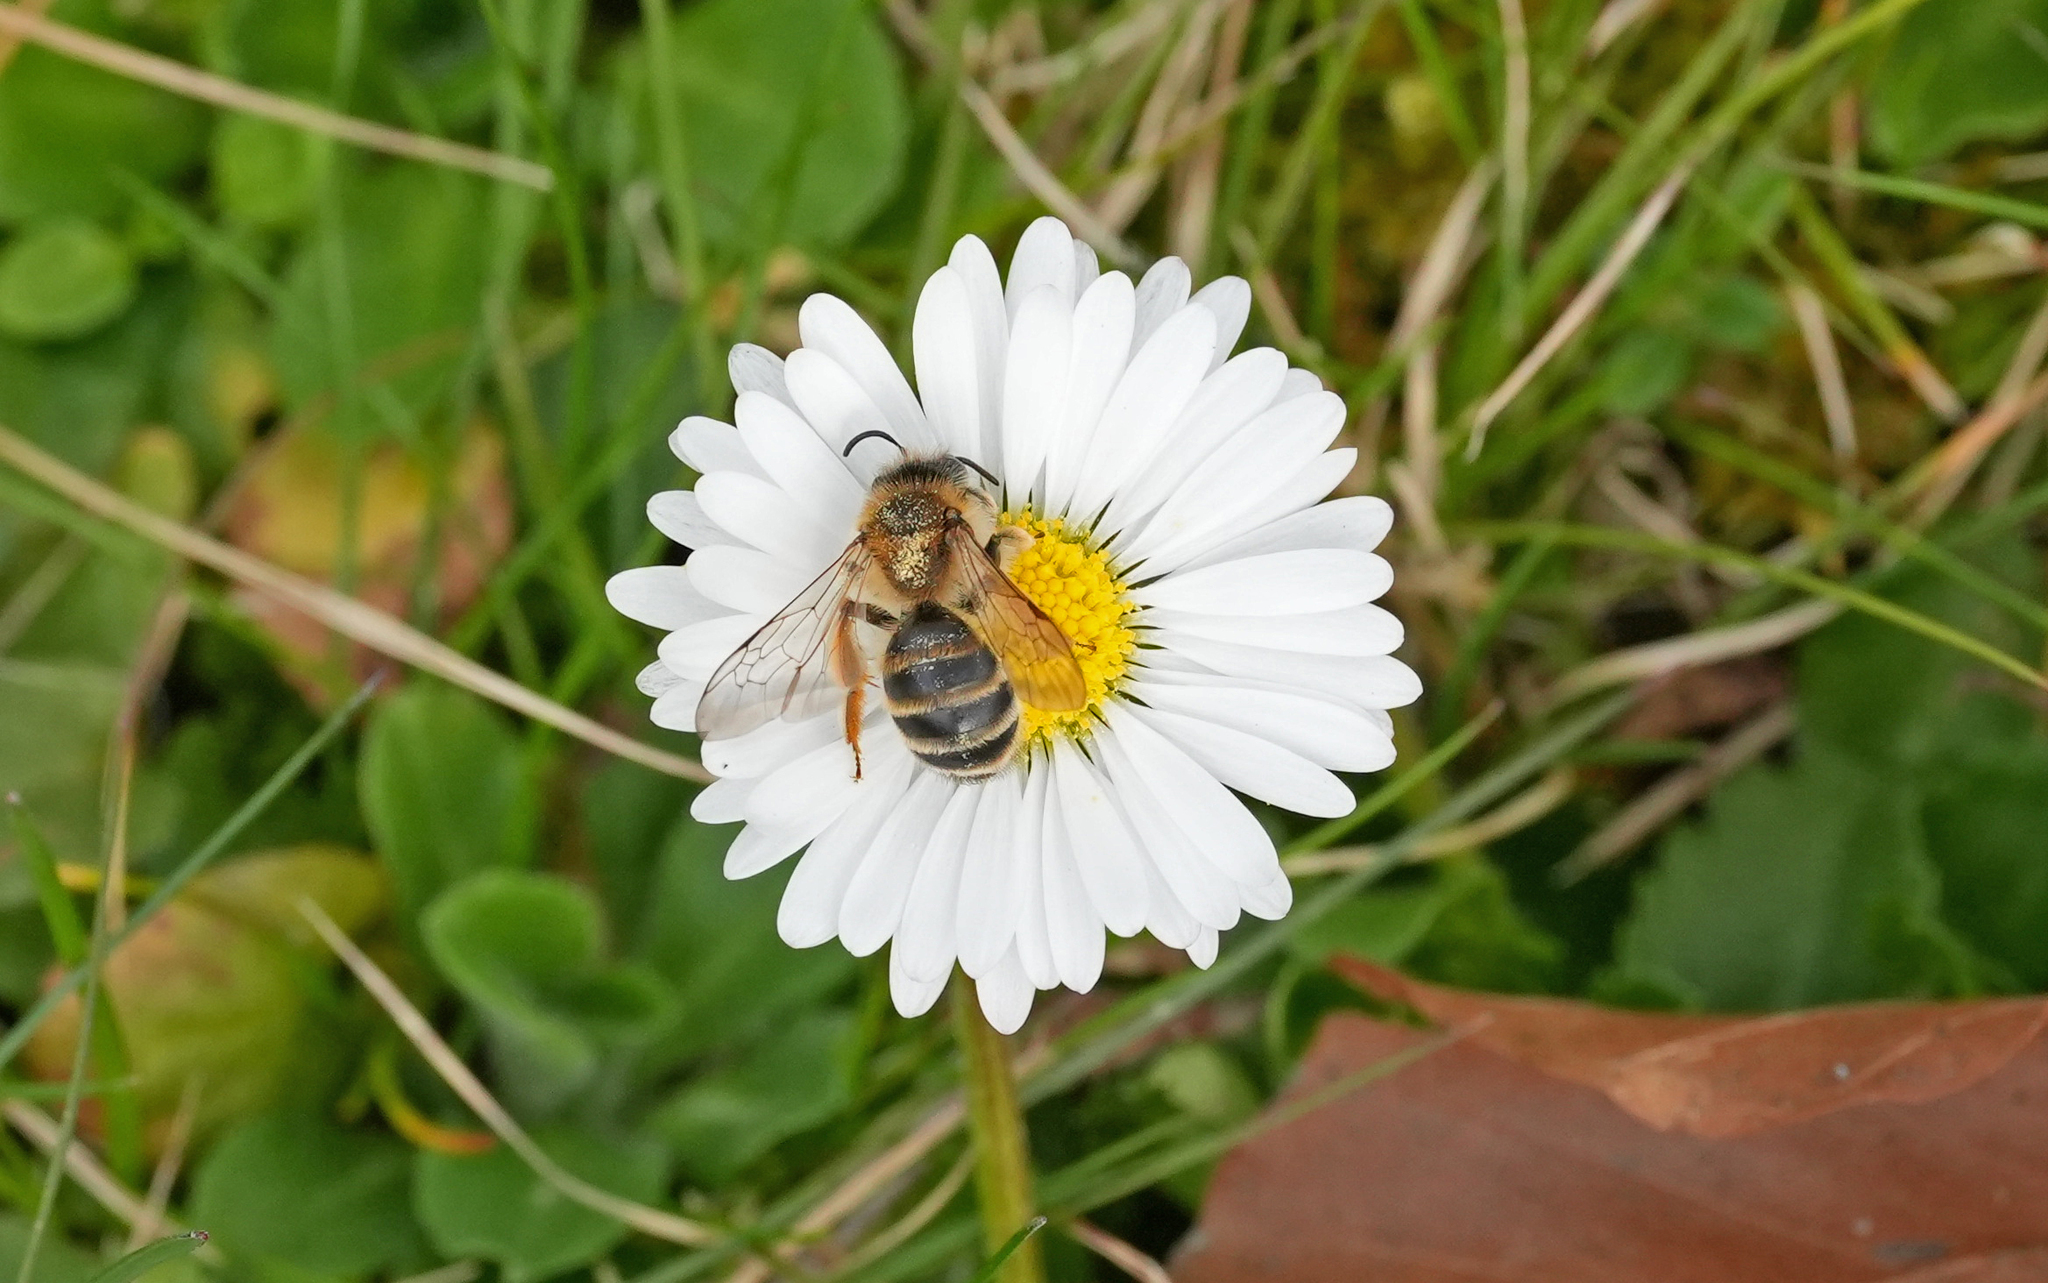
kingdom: Animalia
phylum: Arthropoda
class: Insecta
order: Hymenoptera
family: Andrenidae
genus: Andrena
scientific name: Andrena gravida
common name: White-bellied mining bee
